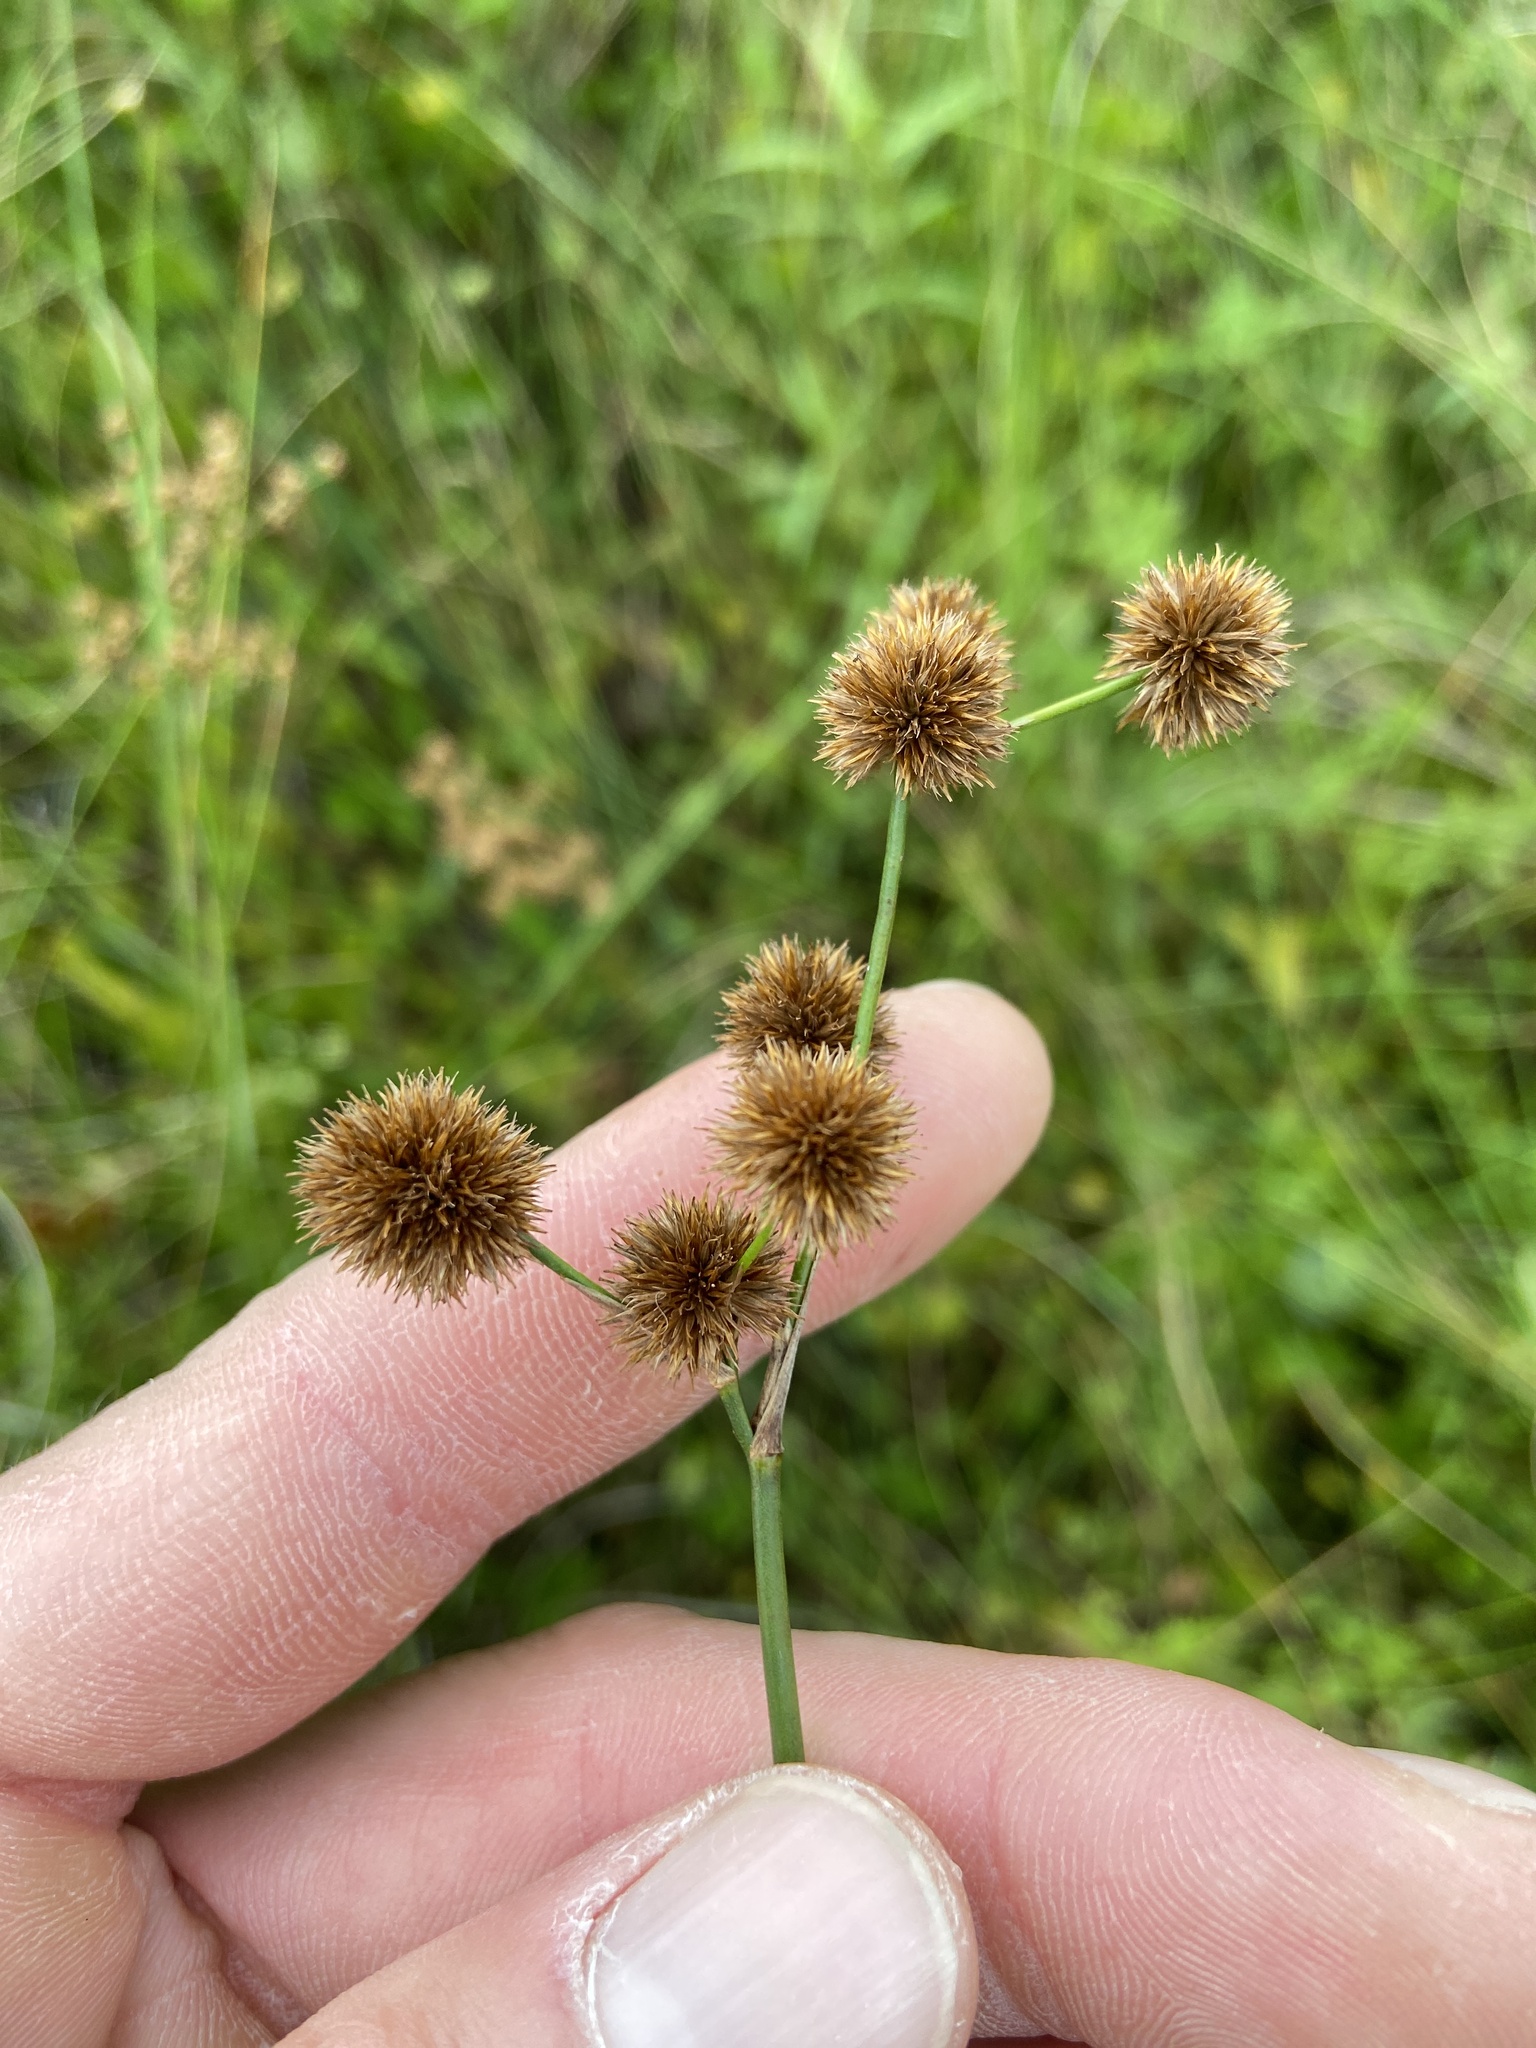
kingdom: Plantae
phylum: Tracheophyta
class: Liliopsida
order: Poales
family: Juncaceae
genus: Juncus
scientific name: Juncus megacephalus
